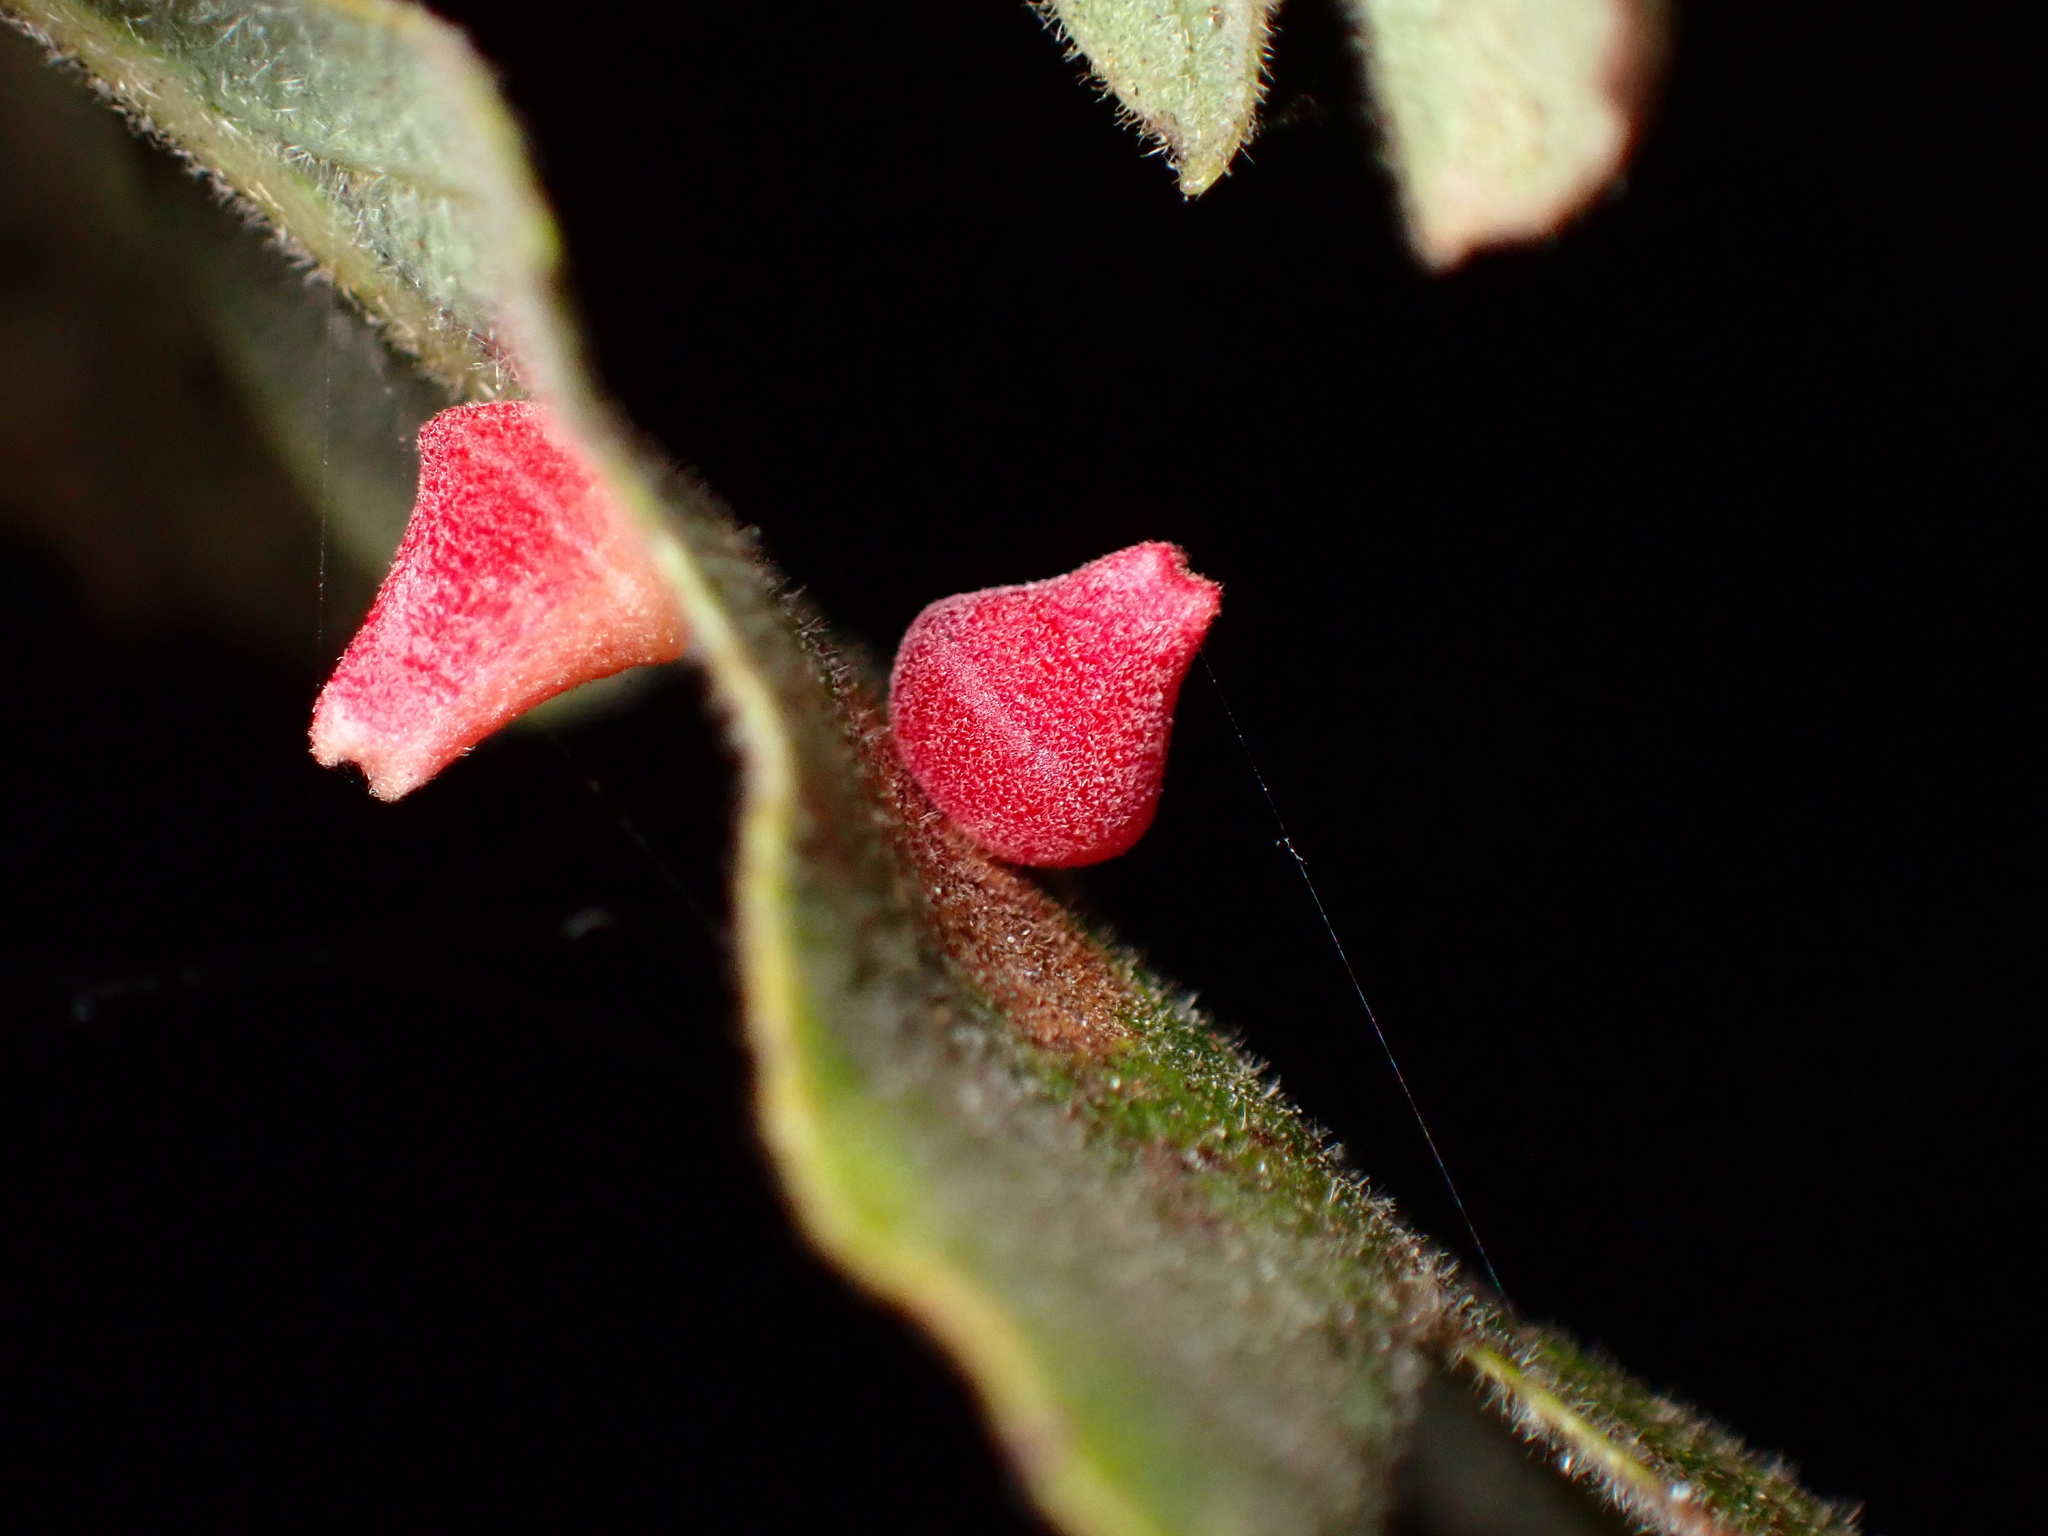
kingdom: Animalia
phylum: Arthropoda
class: Insecta
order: Hymenoptera
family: Cynipidae
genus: Andricus
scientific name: Andricus
